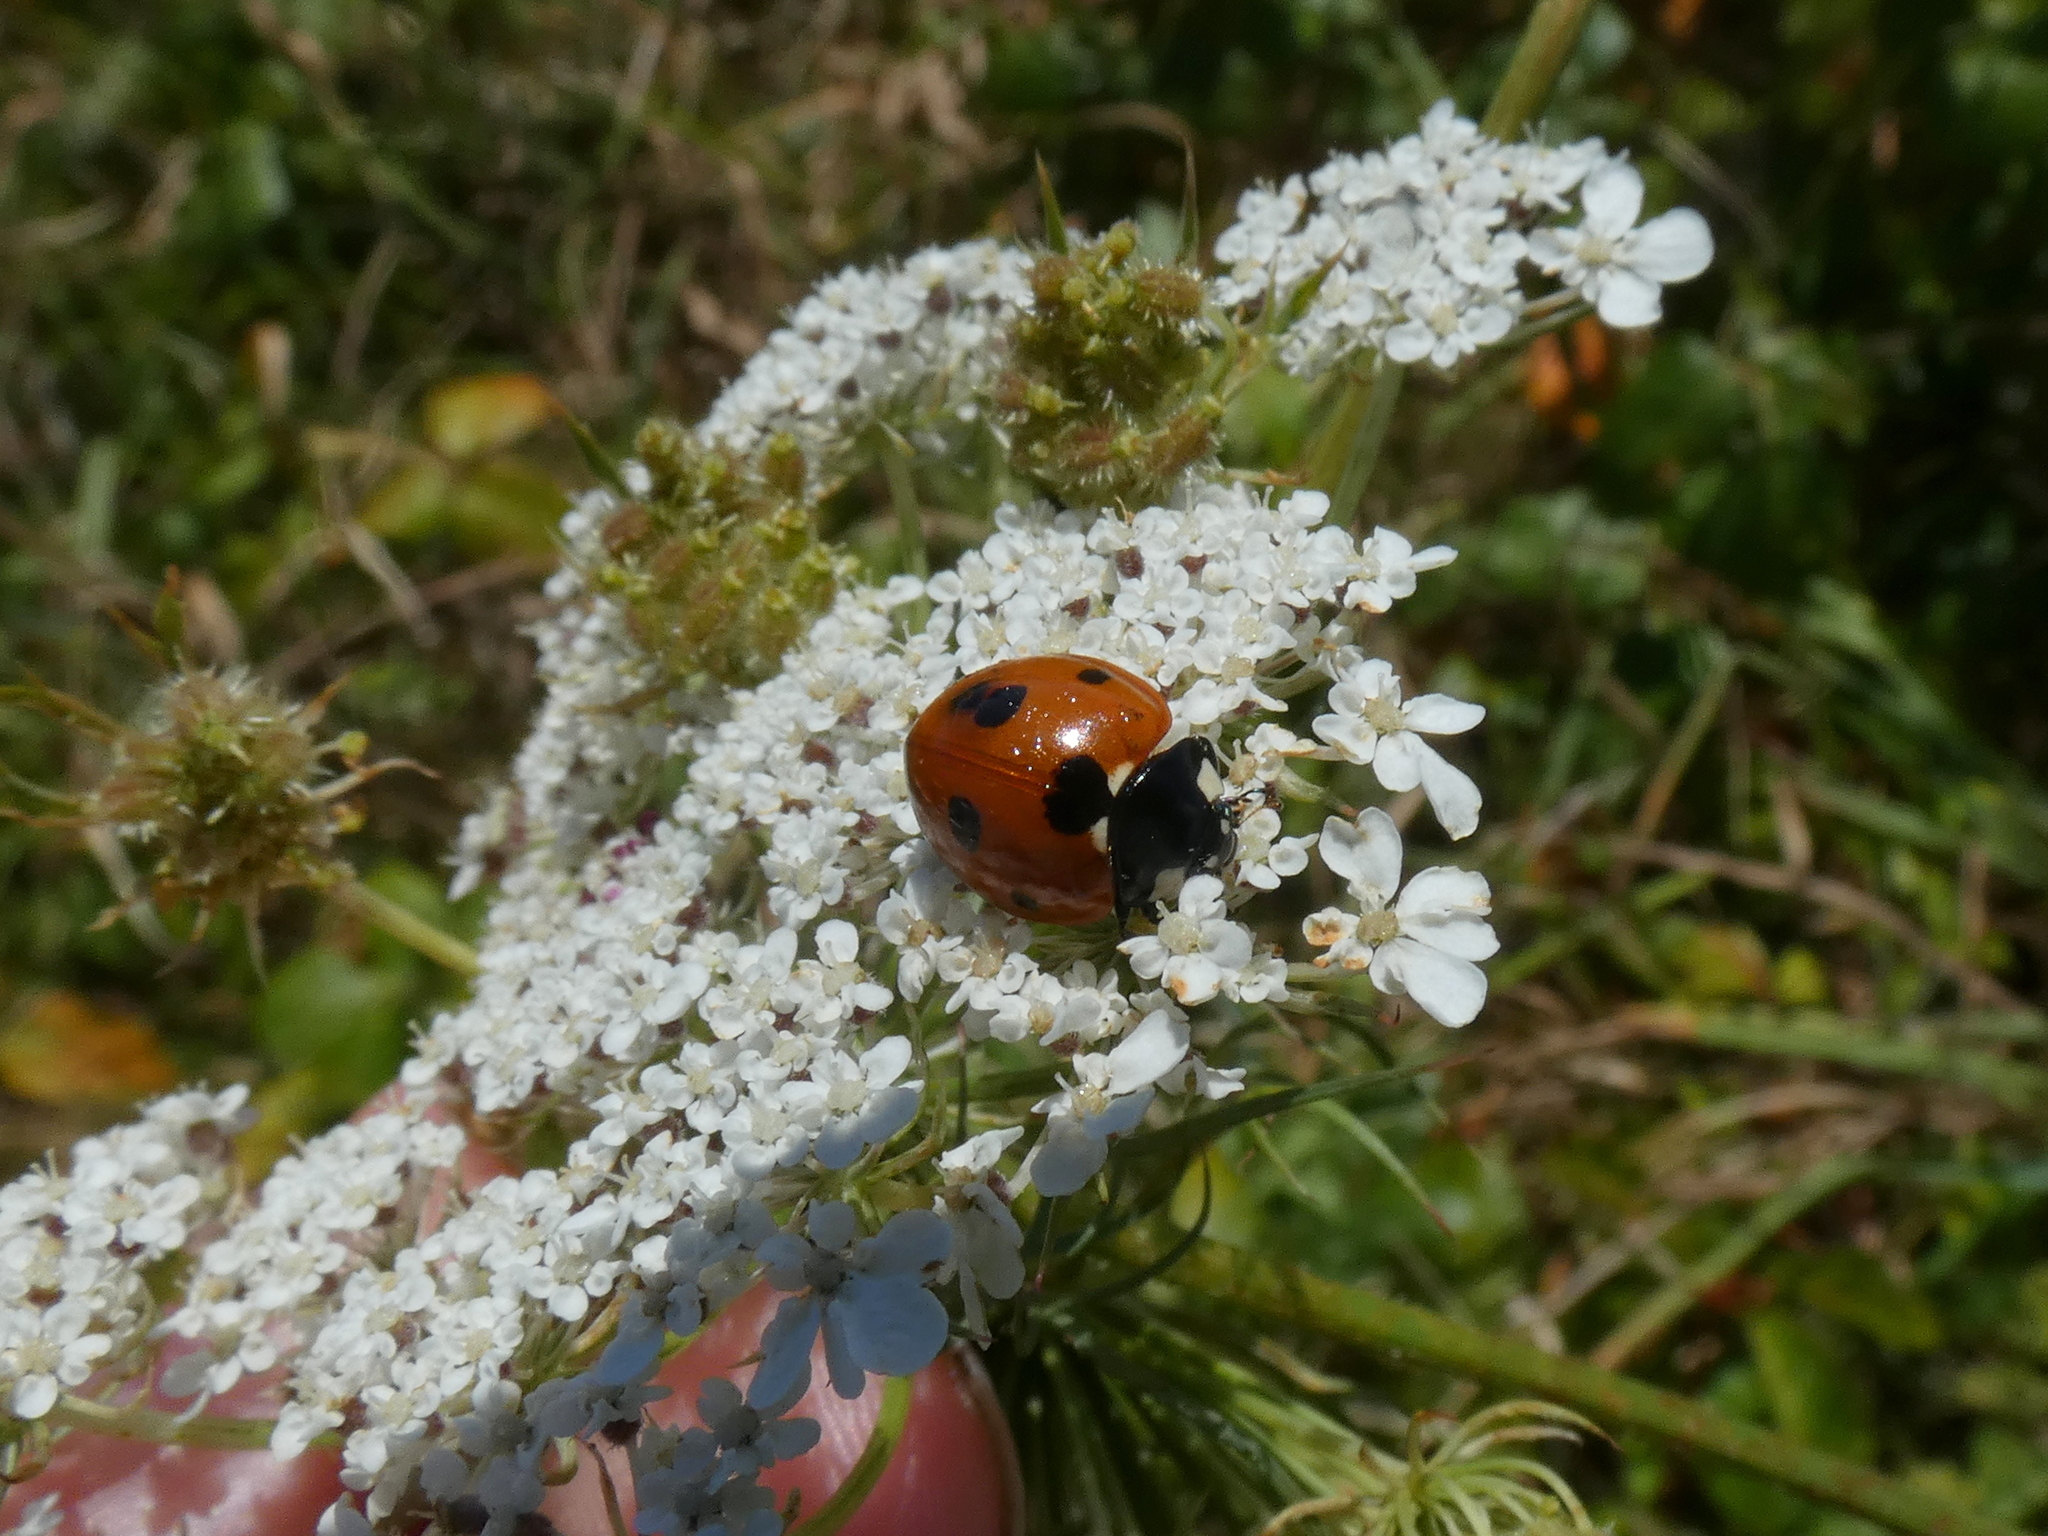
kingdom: Animalia
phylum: Arthropoda
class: Insecta
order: Coleoptera
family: Coccinellidae
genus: Coccinella
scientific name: Coccinella septempunctata
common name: Sevenspotted lady beetle
